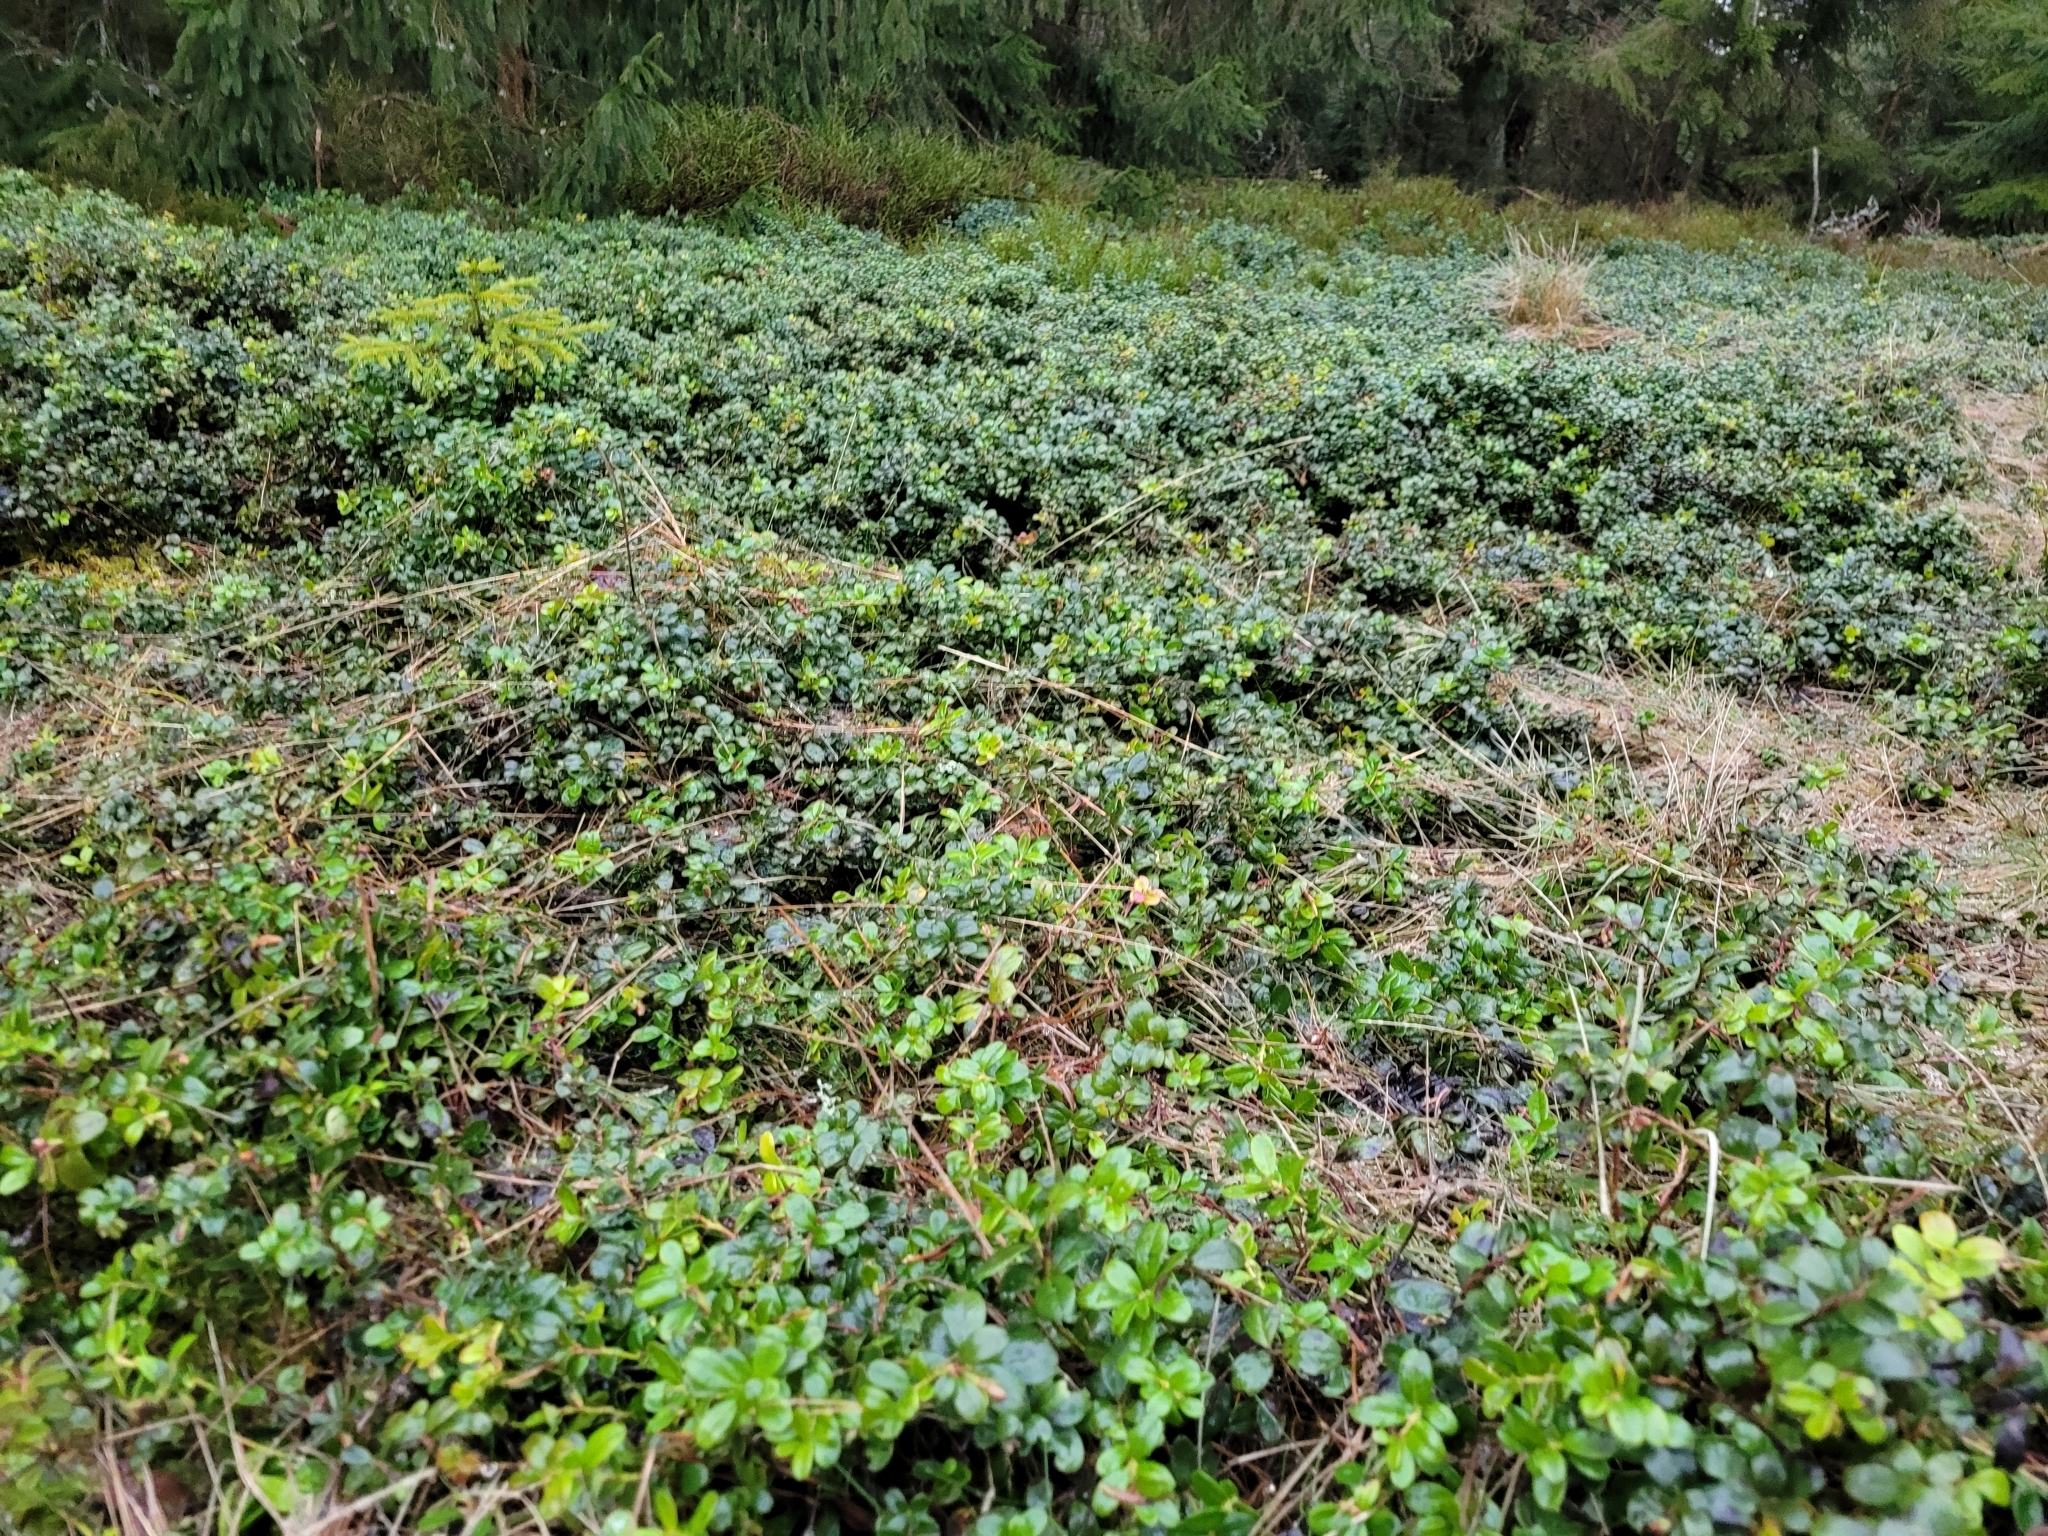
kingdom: Plantae
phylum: Tracheophyta
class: Magnoliopsida
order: Ericales
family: Ericaceae
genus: Vaccinium
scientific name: Vaccinium vitis-idaea
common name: Cowberry
